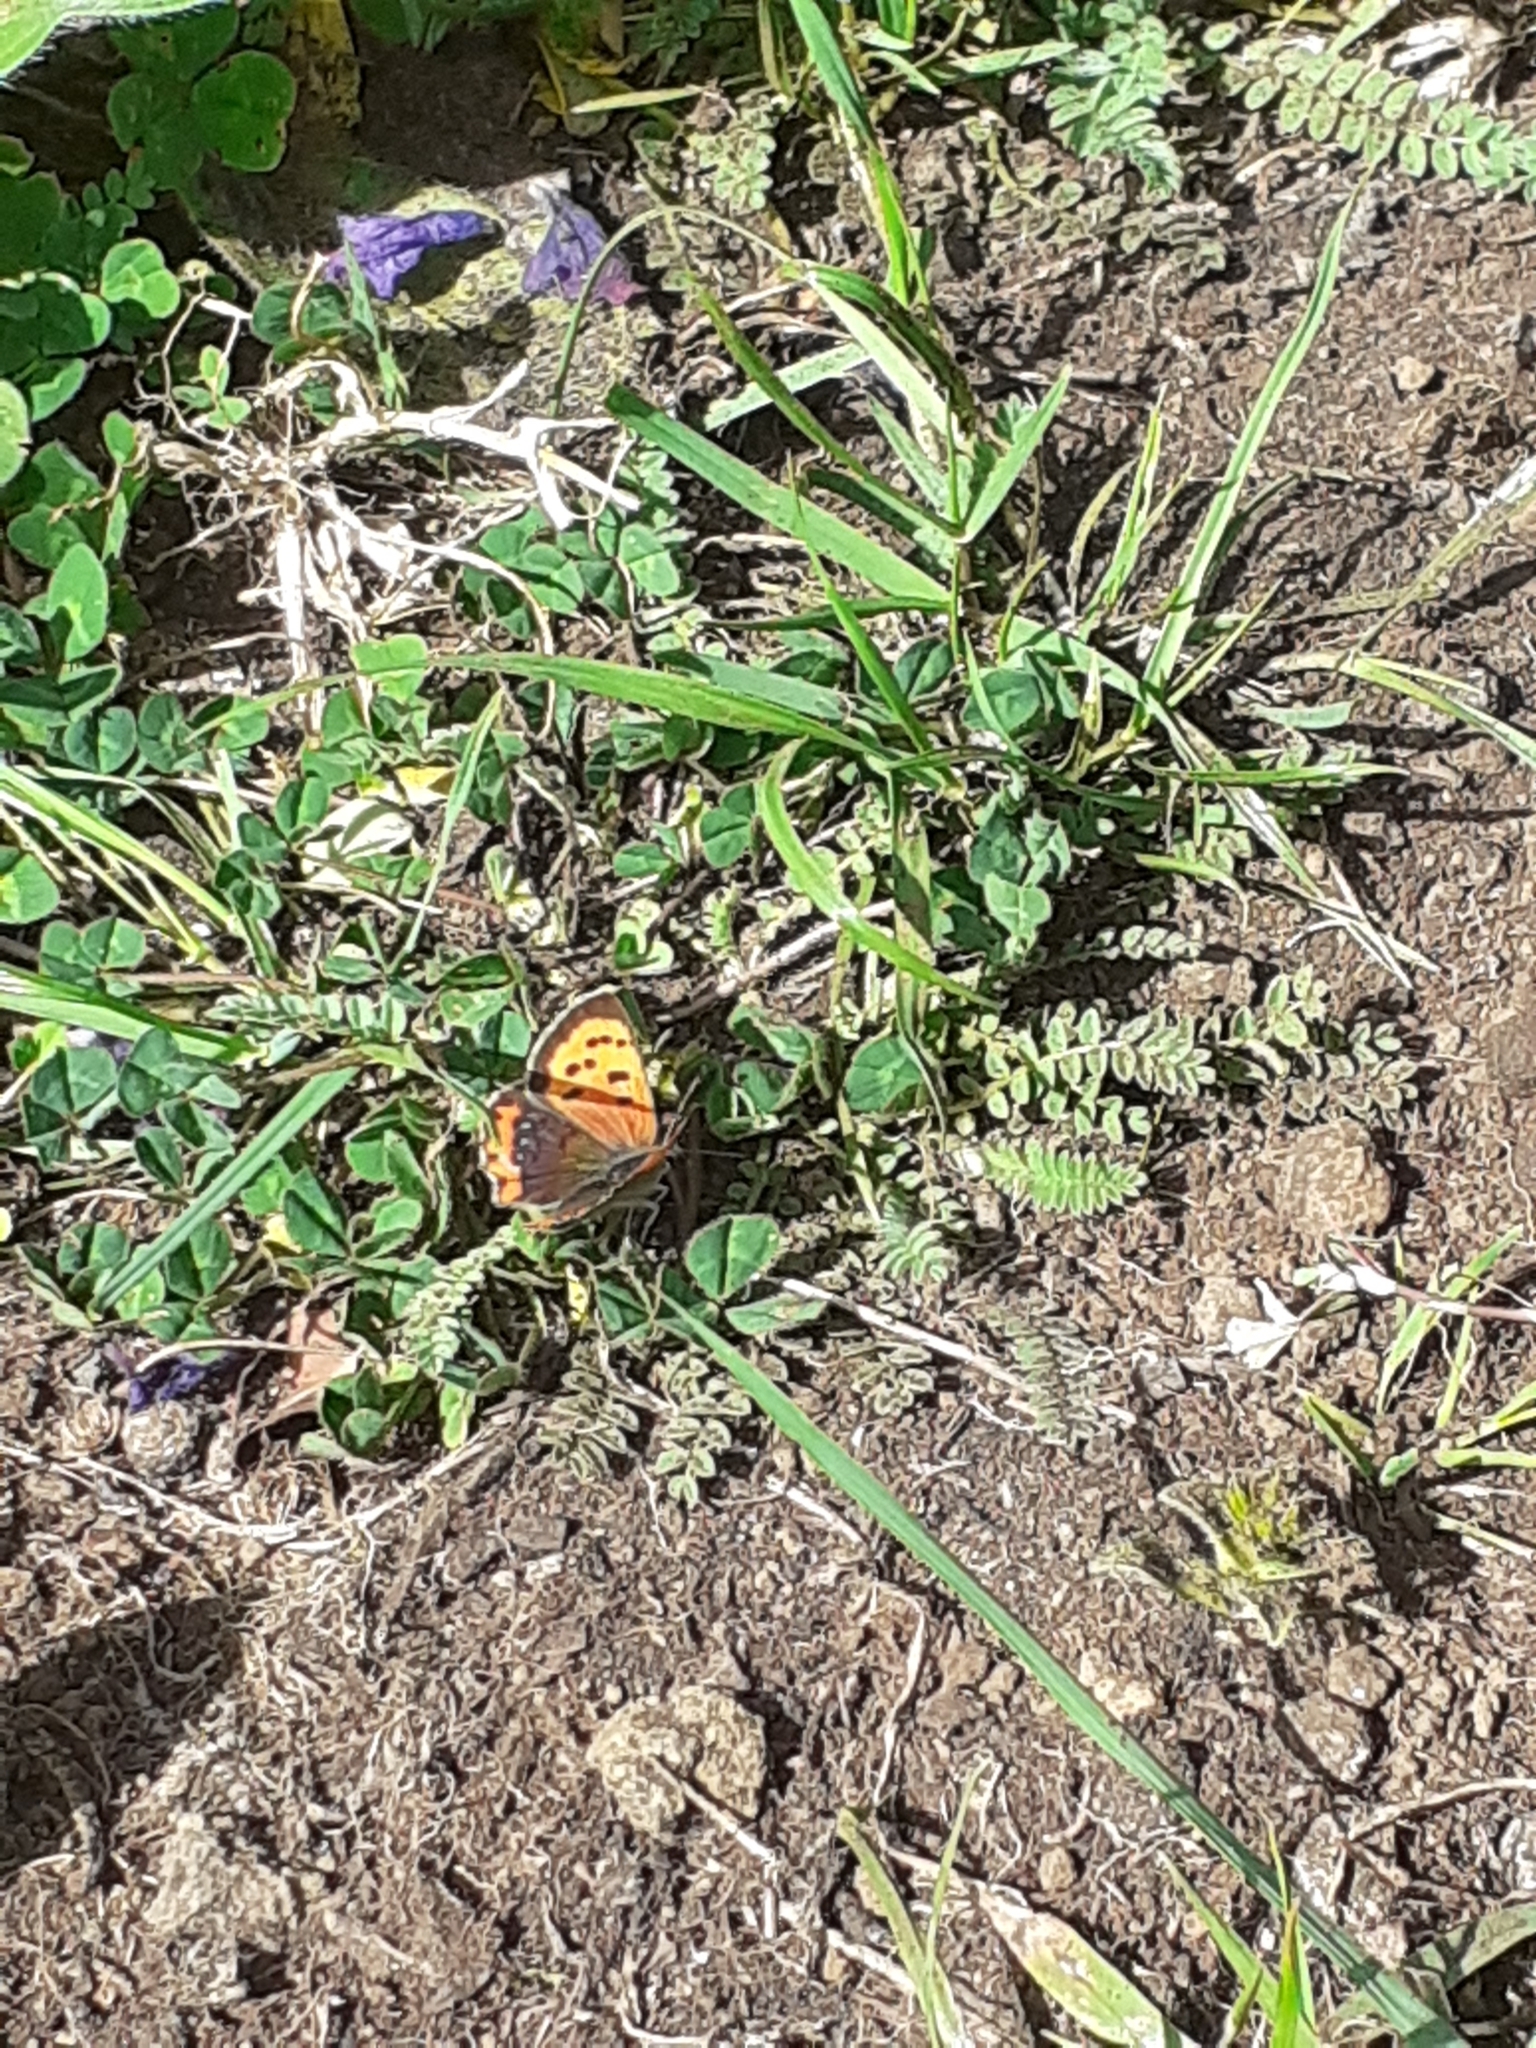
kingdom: Animalia
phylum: Arthropoda
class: Insecta
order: Lepidoptera
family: Lycaenidae
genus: Lycaena
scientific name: Lycaena phlaeas
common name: Small copper
